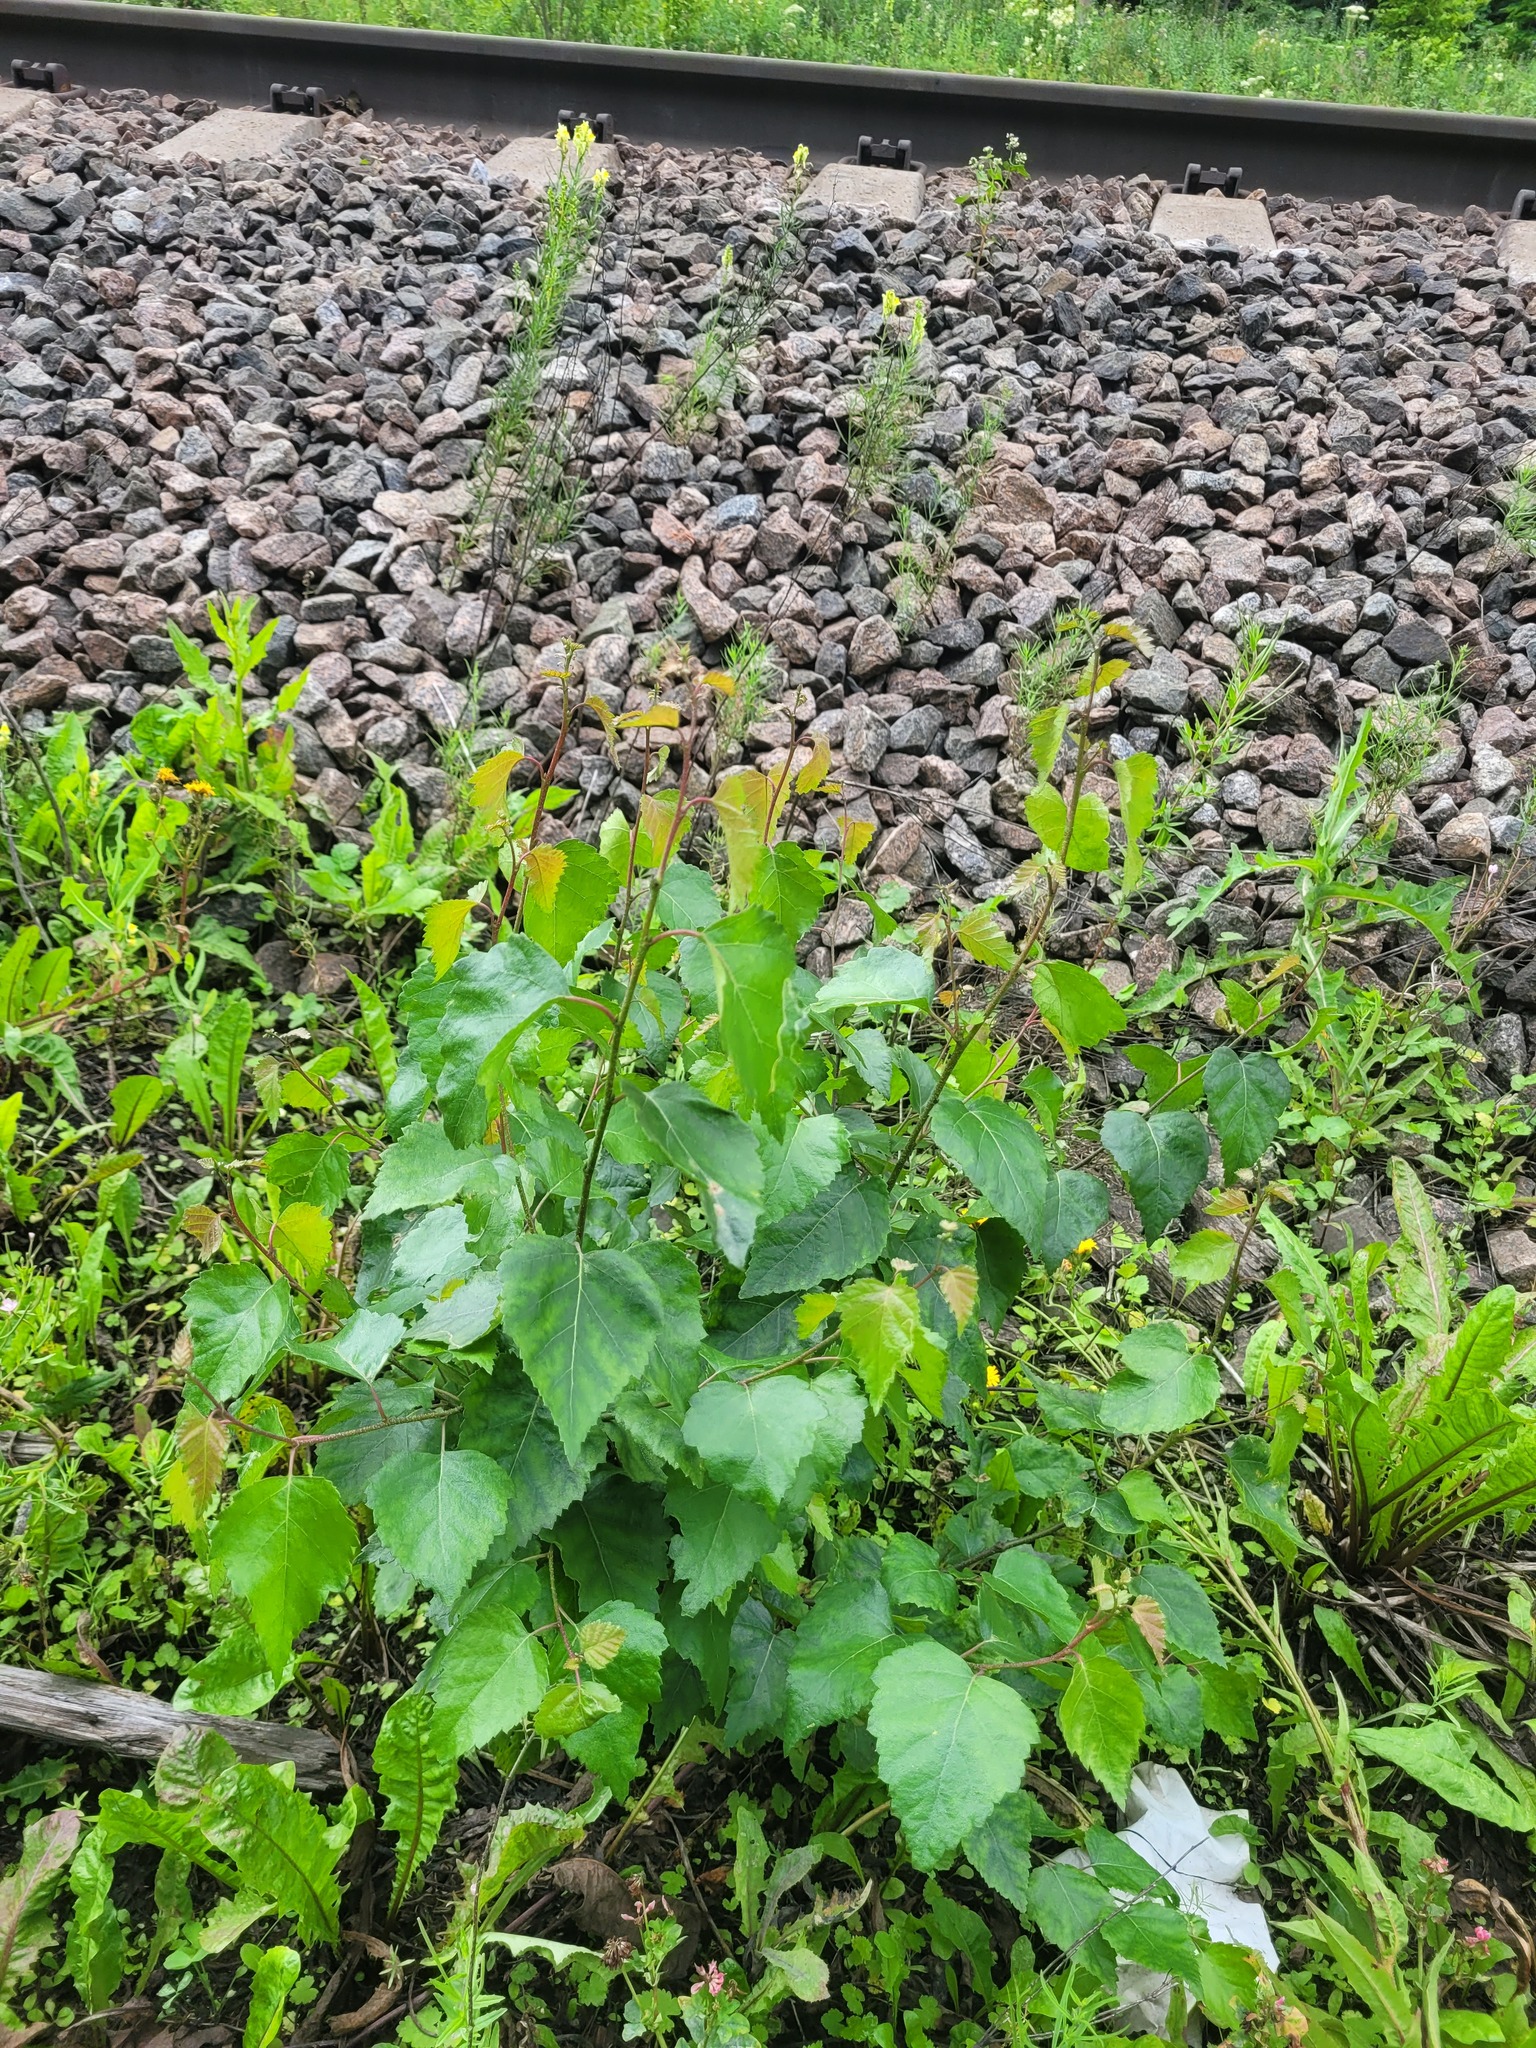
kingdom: Plantae
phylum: Tracheophyta
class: Magnoliopsida
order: Fagales
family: Betulaceae
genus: Betula
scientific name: Betula pendula
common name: Silver birch
